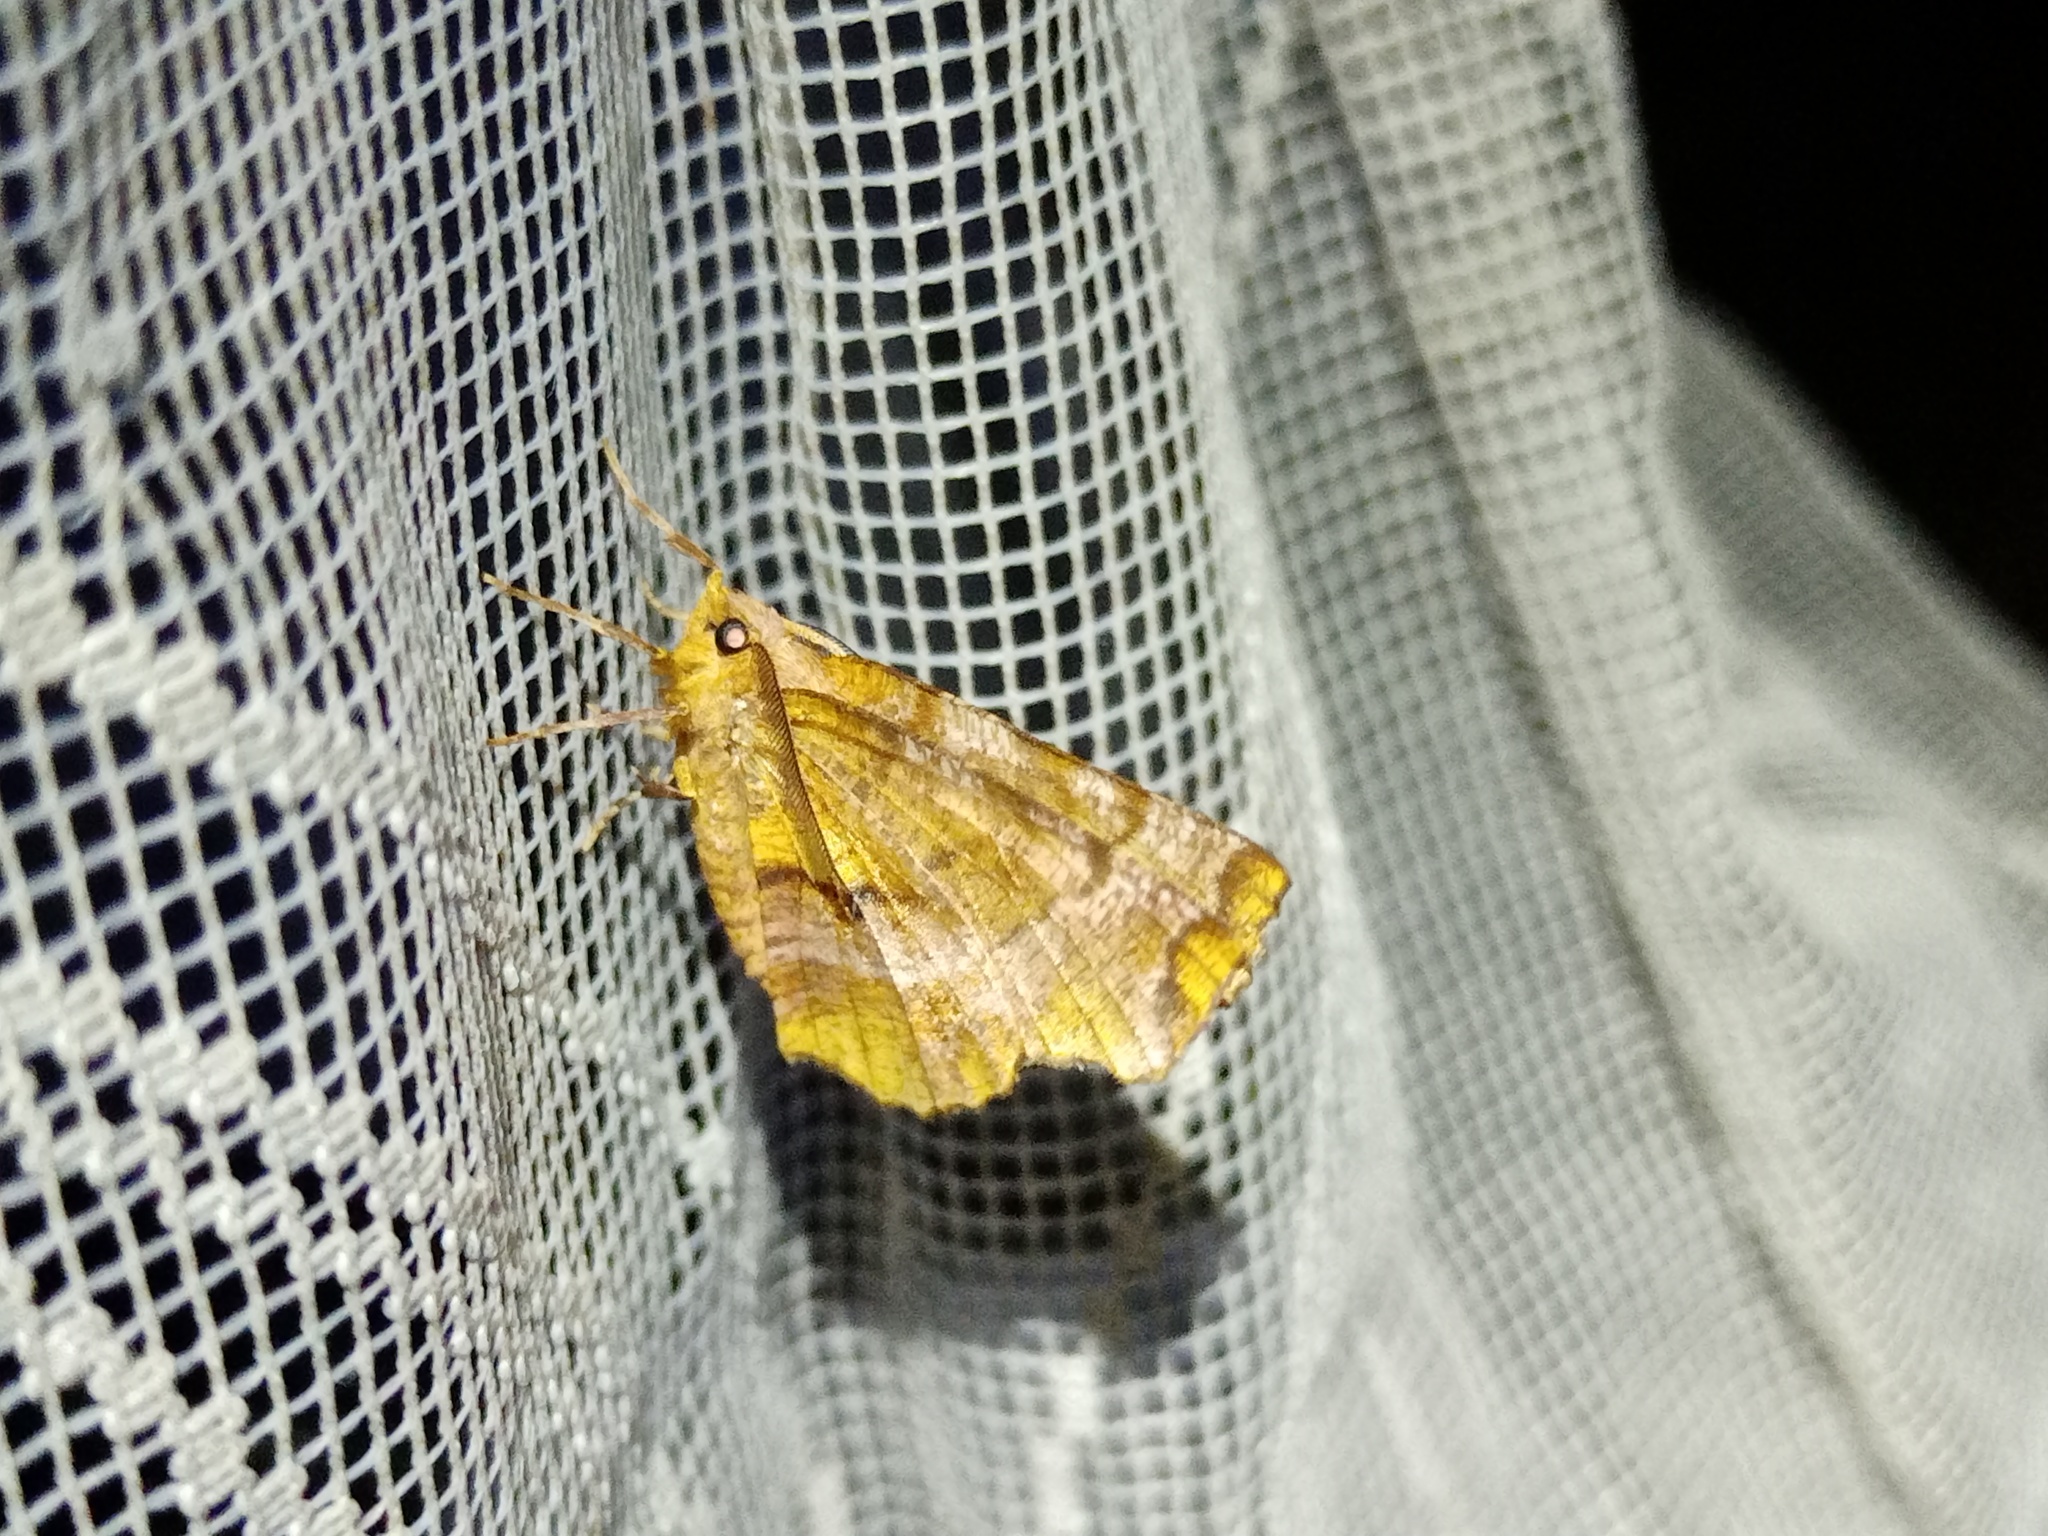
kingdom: Animalia
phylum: Arthropoda
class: Insecta
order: Lepidoptera
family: Geometridae
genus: Selenia
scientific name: Selenia dentaria
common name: Early thorn
